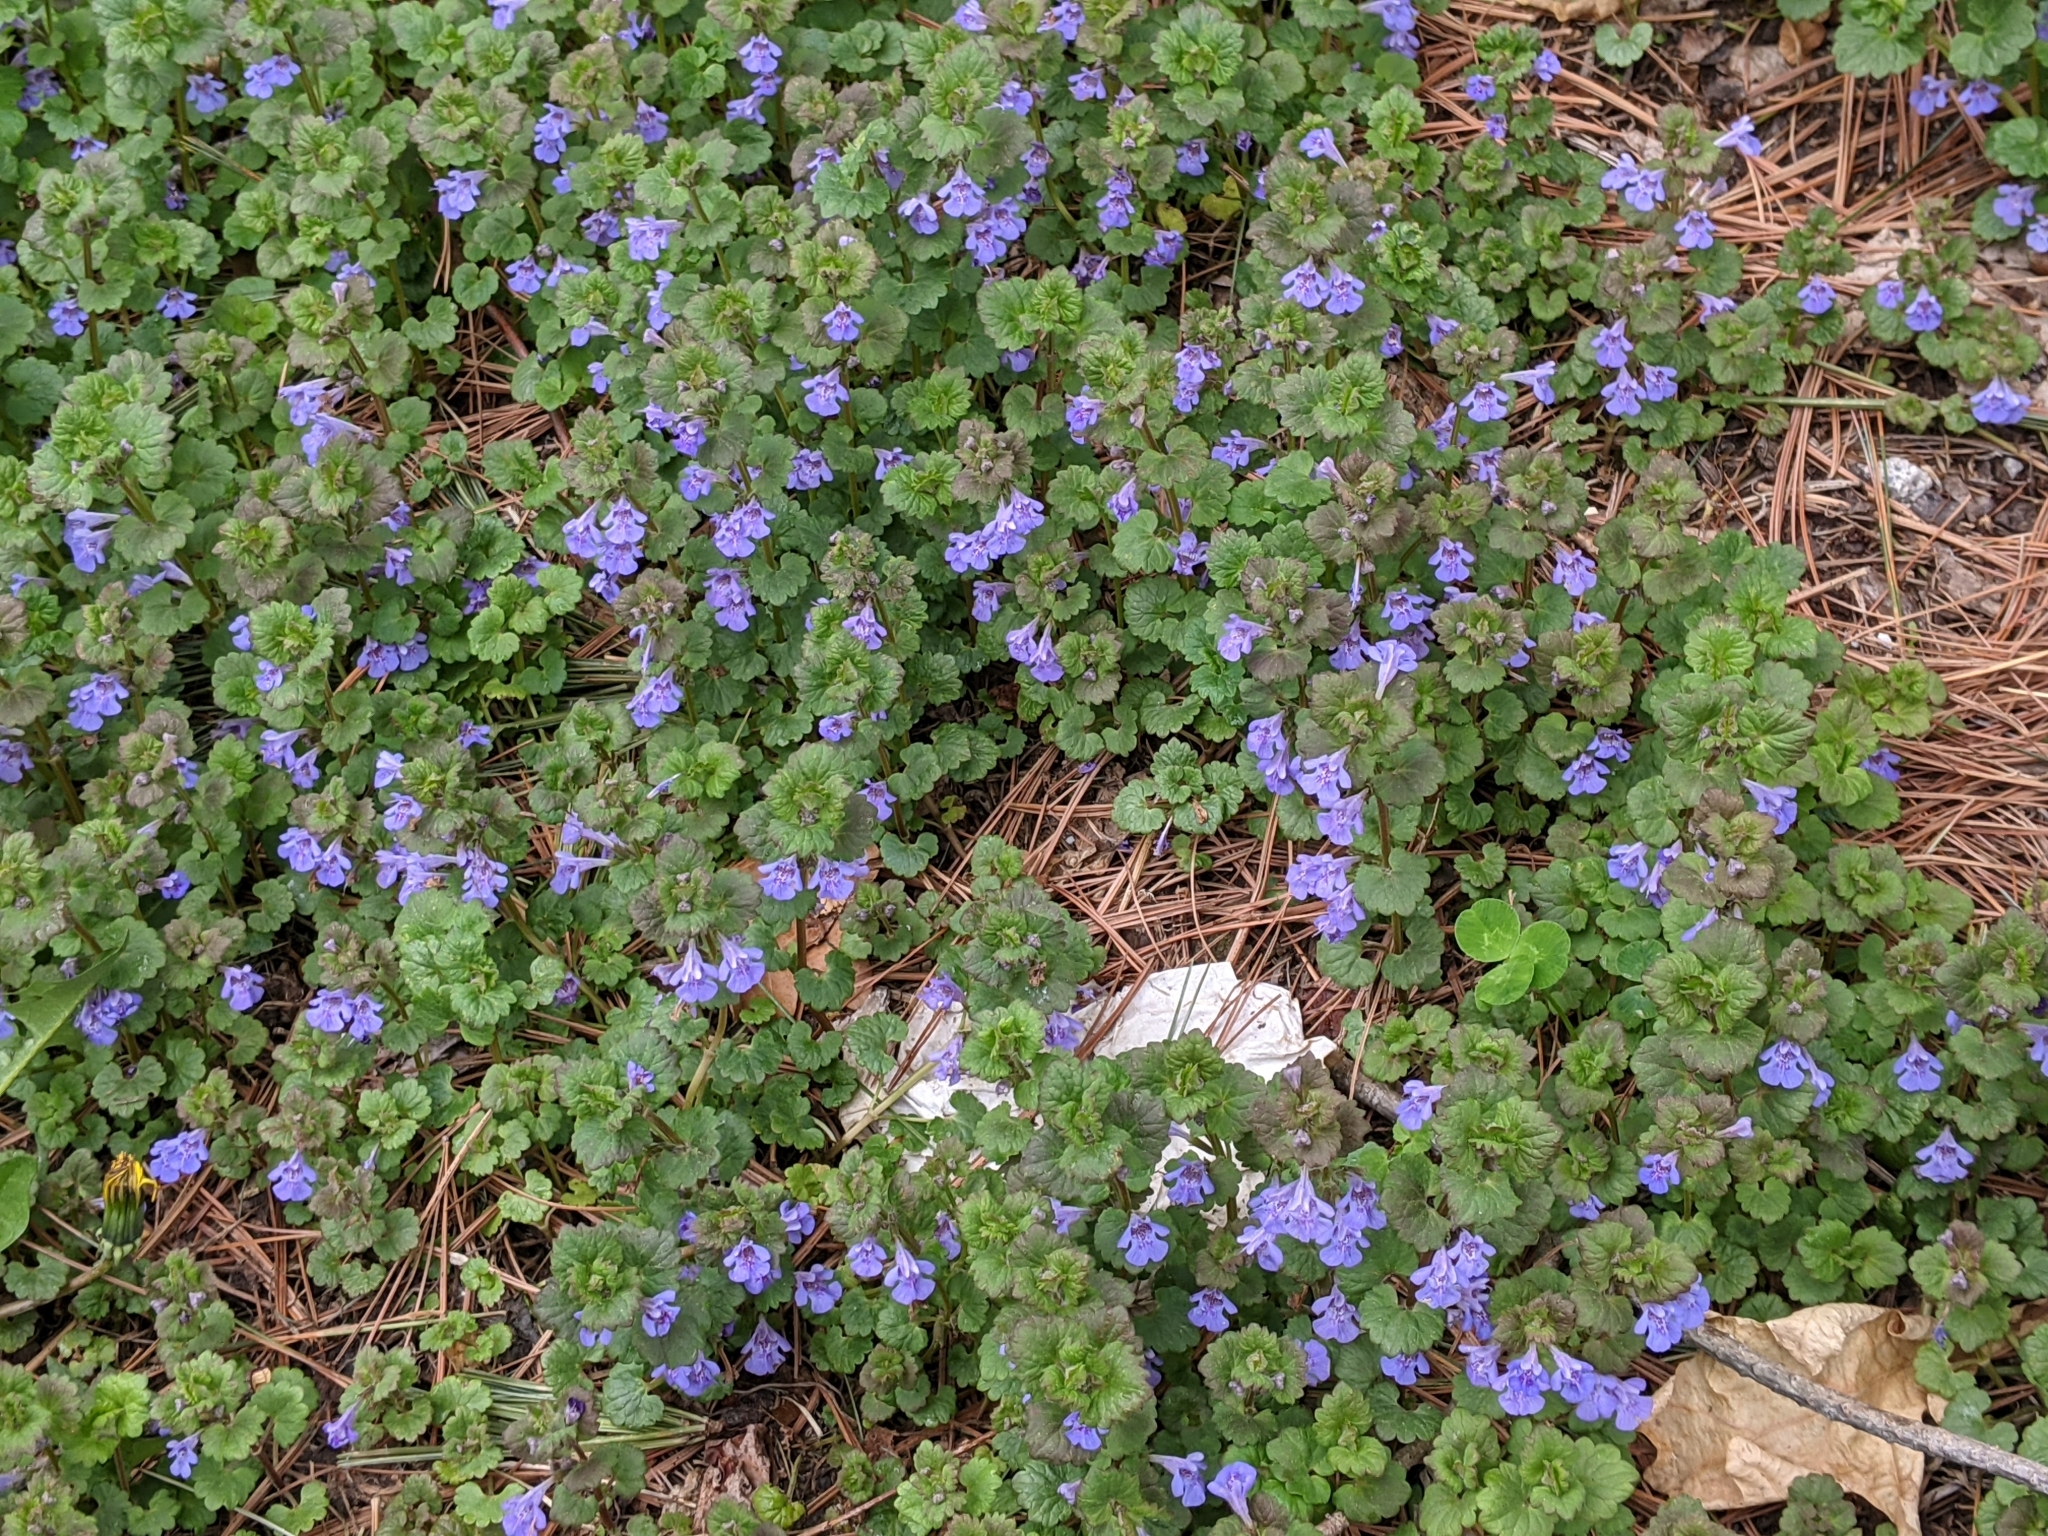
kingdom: Plantae
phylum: Tracheophyta
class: Magnoliopsida
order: Lamiales
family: Lamiaceae
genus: Glechoma
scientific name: Glechoma hederacea
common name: Ground ivy
